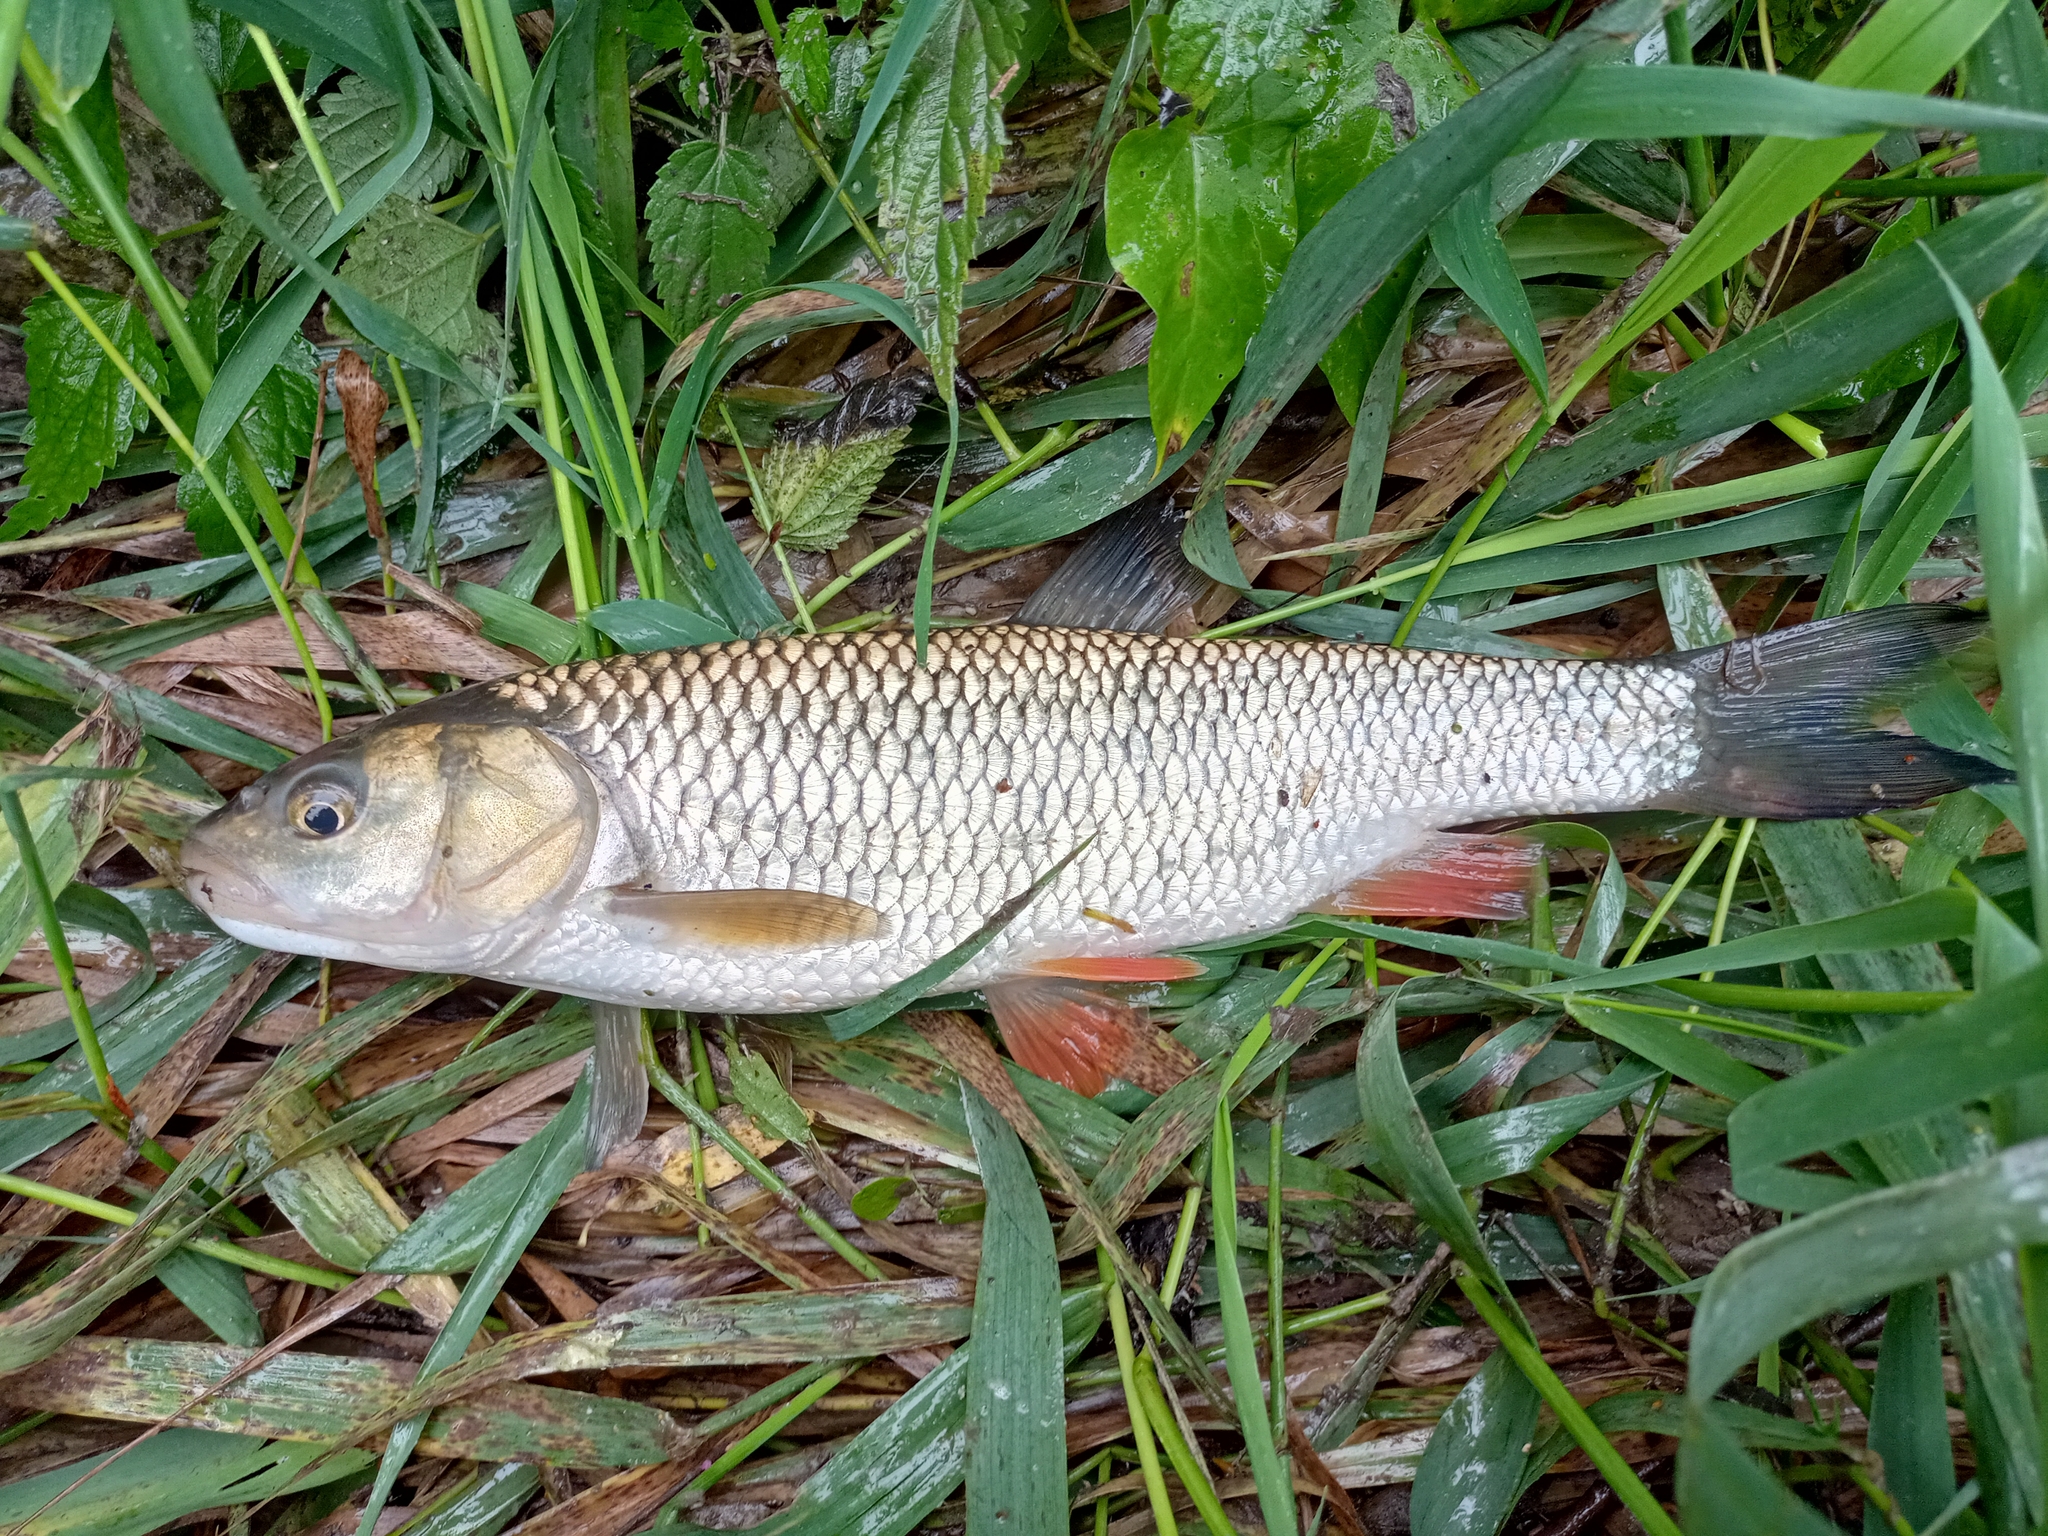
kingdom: Animalia
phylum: Chordata
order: Cypriniformes
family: Cyprinidae
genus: Squalius
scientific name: Squalius cephalus
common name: Chub
